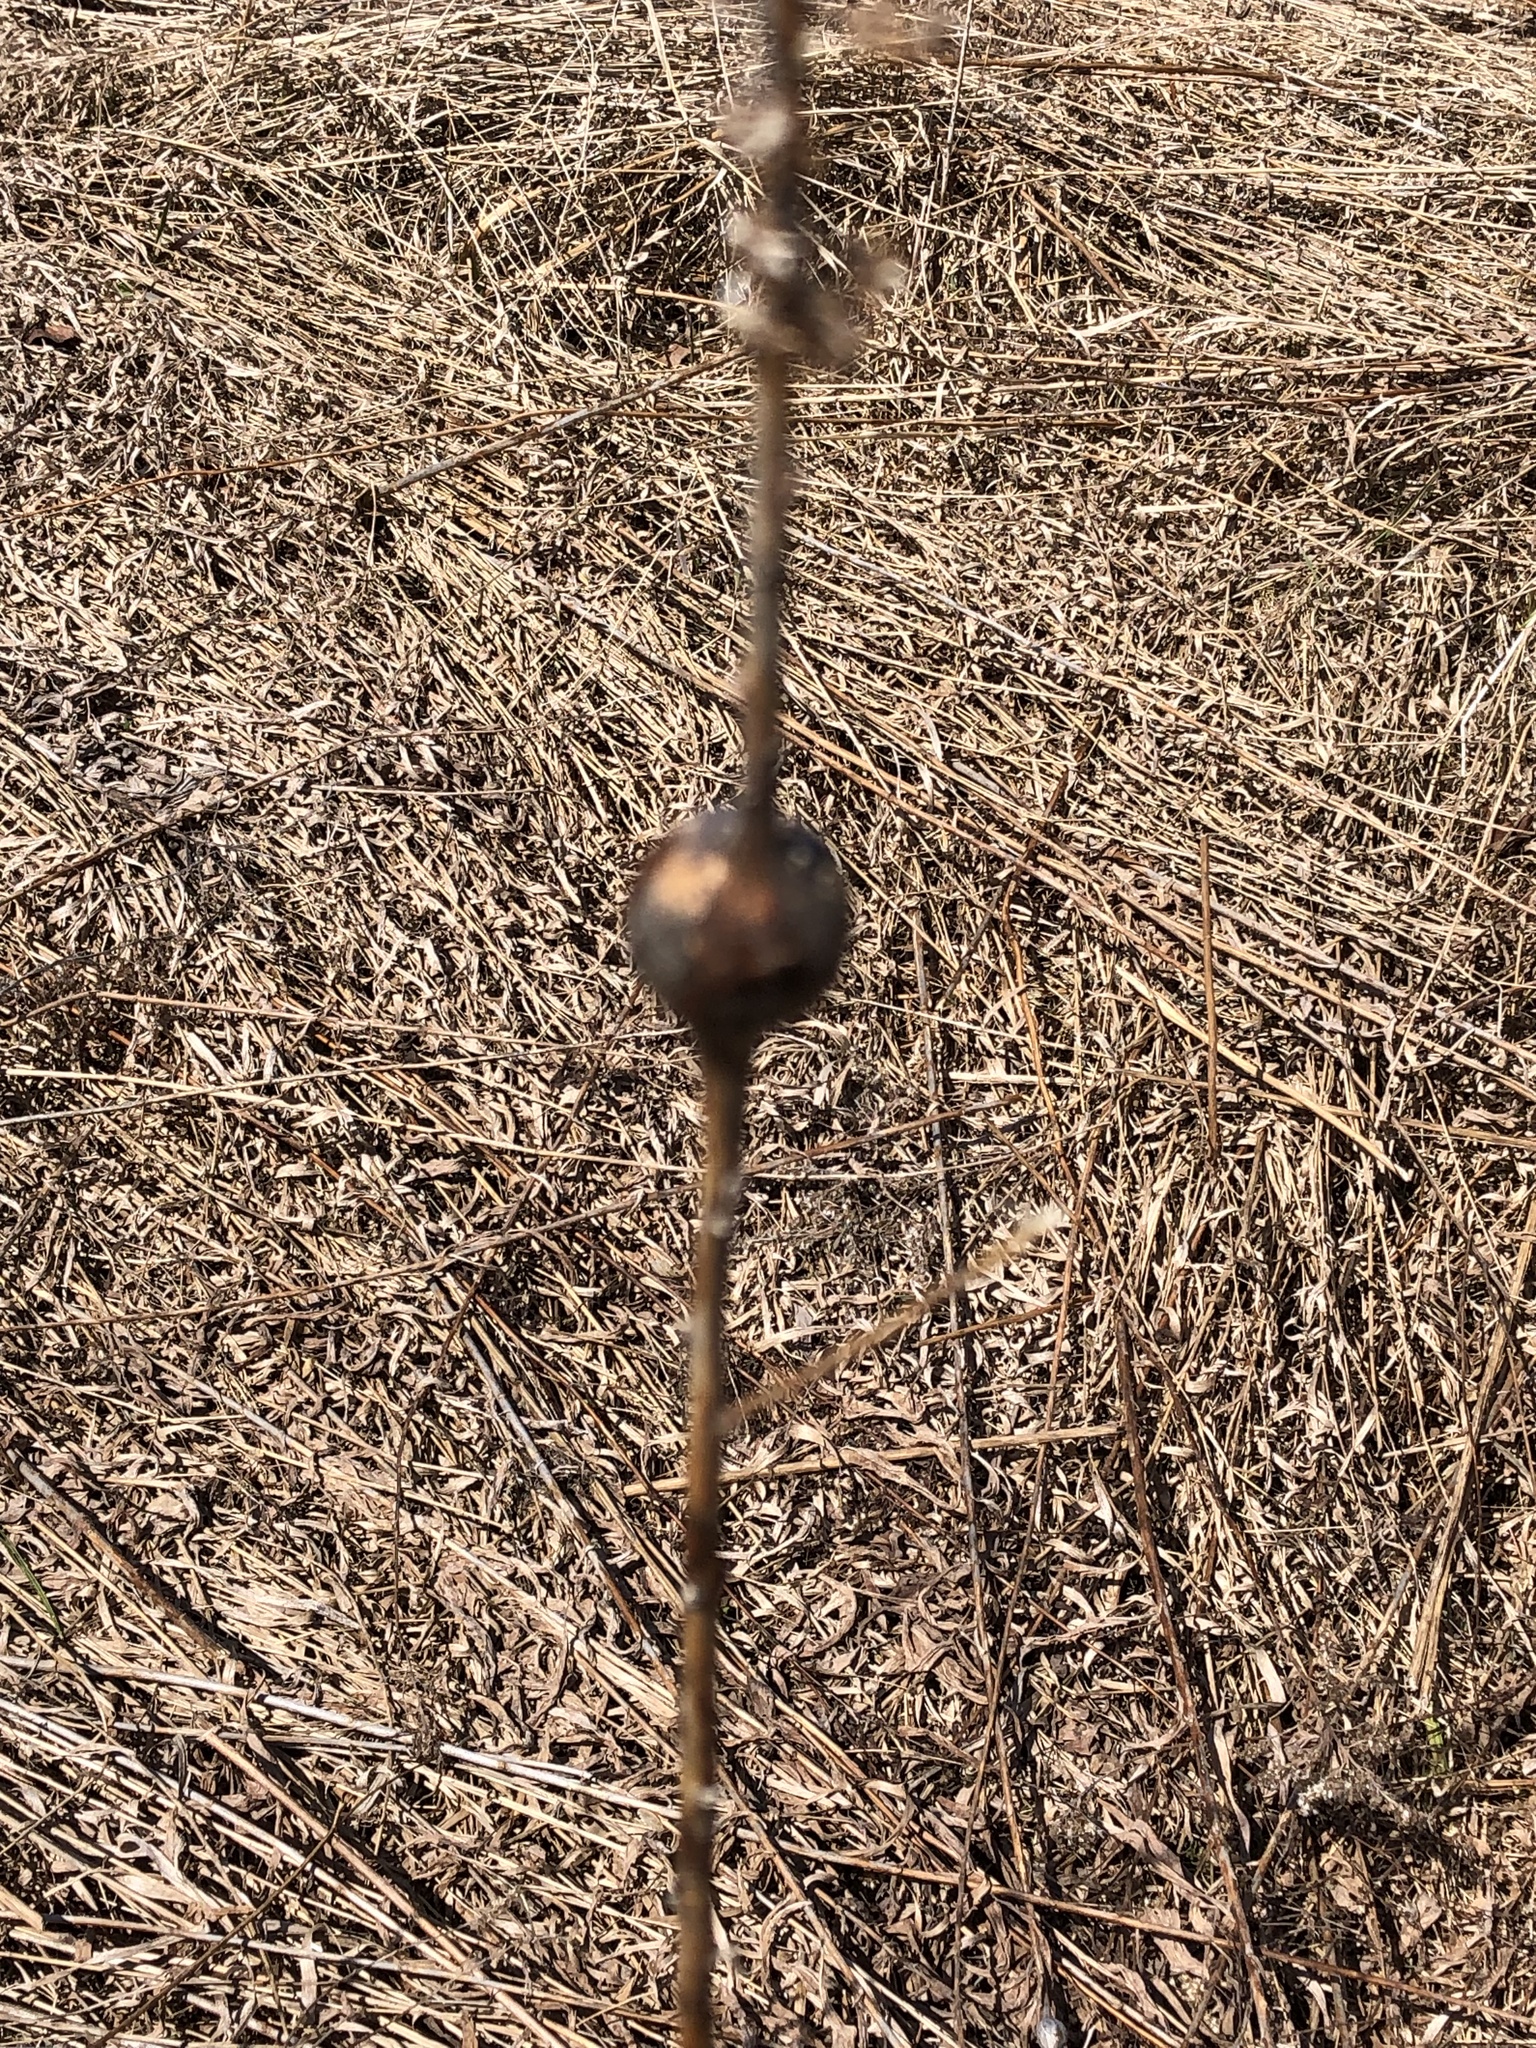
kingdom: Animalia
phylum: Arthropoda
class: Insecta
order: Diptera
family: Tephritidae
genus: Eurosta
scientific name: Eurosta solidaginis
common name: Goldenrod gall fly
